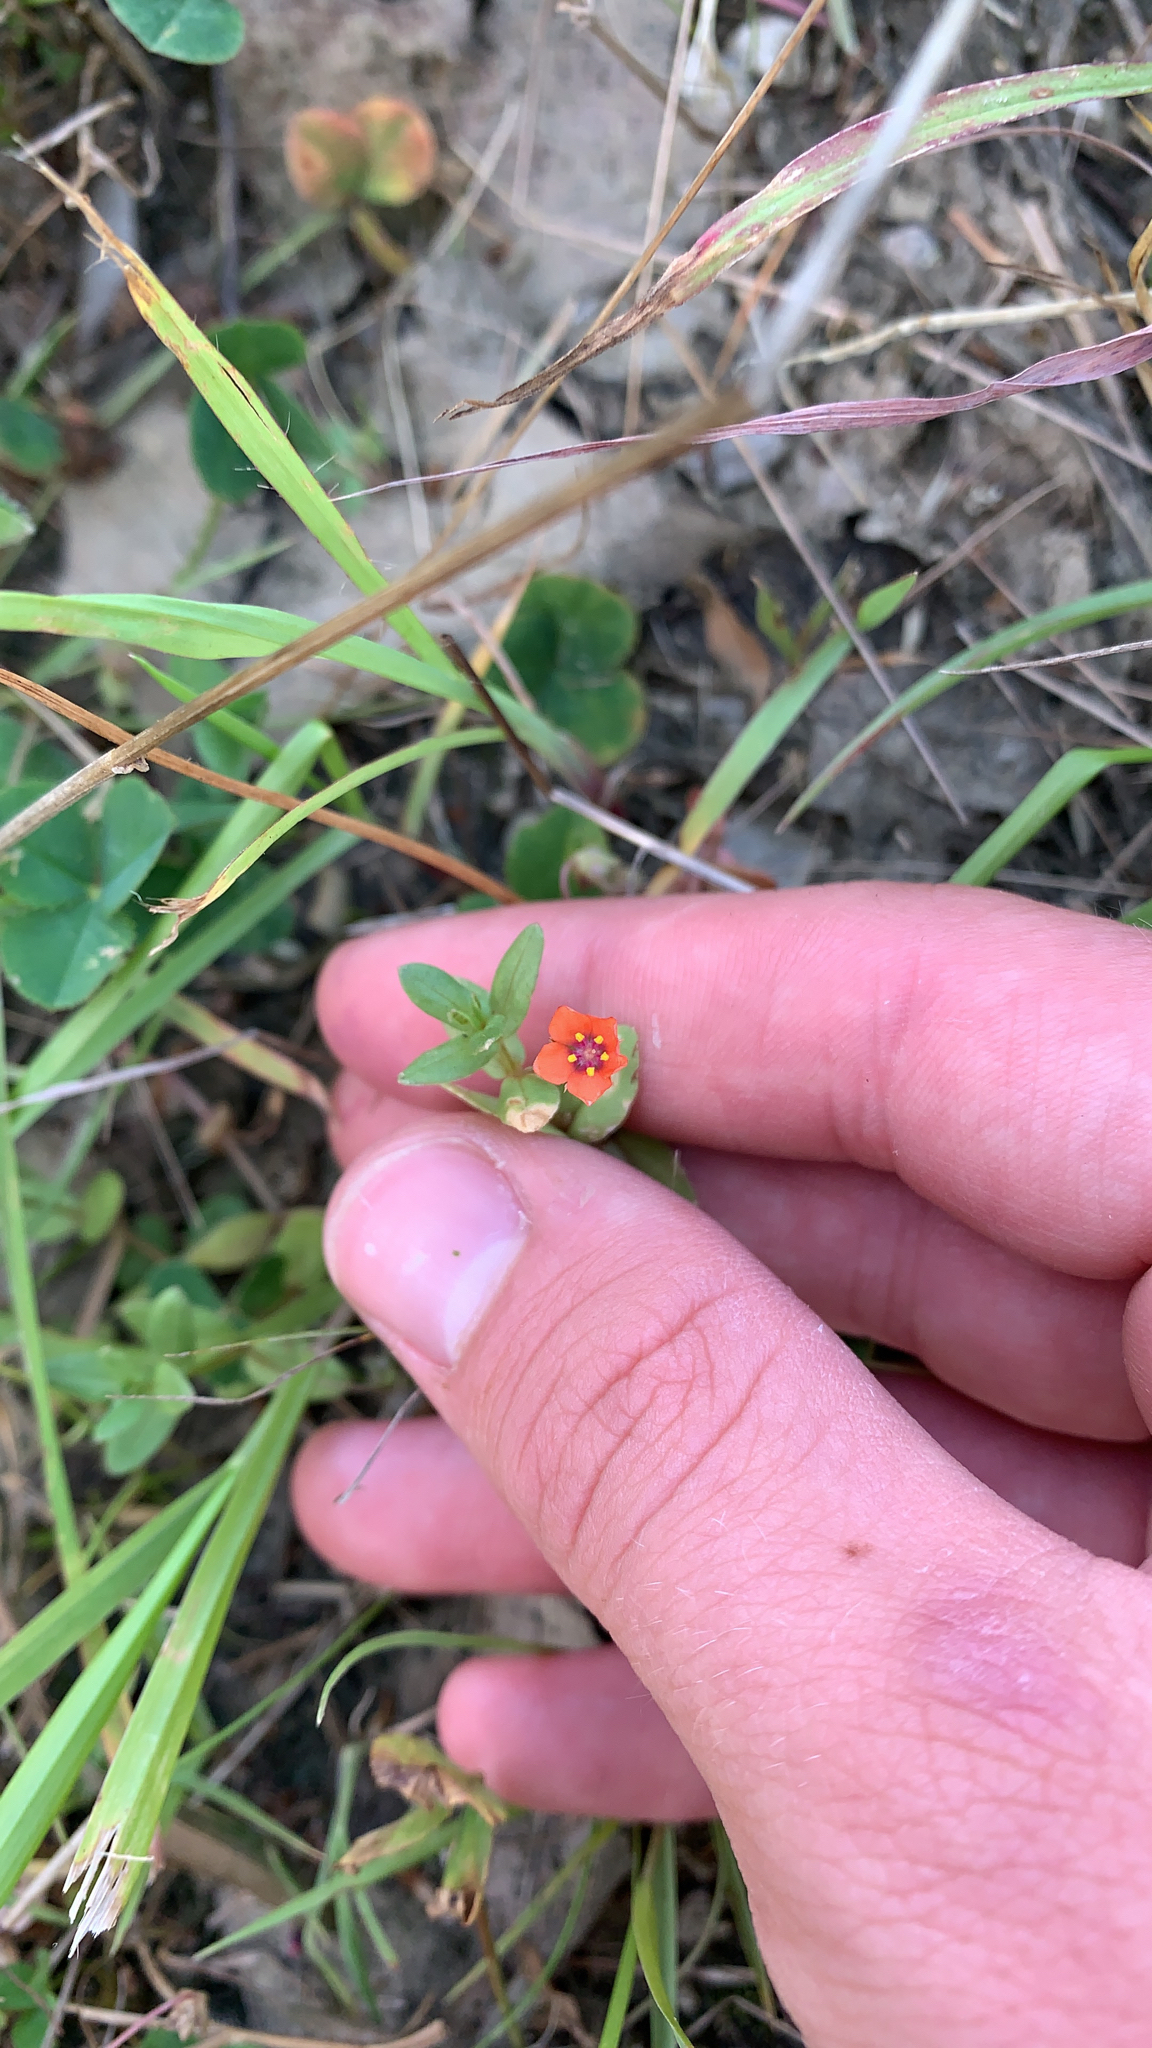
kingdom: Plantae
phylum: Tracheophyta
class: Magnoliopsida
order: Ericales
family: Primulaceae
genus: Lysimachia
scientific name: Lysimachia arvensis
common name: Scarlet pimpernel
